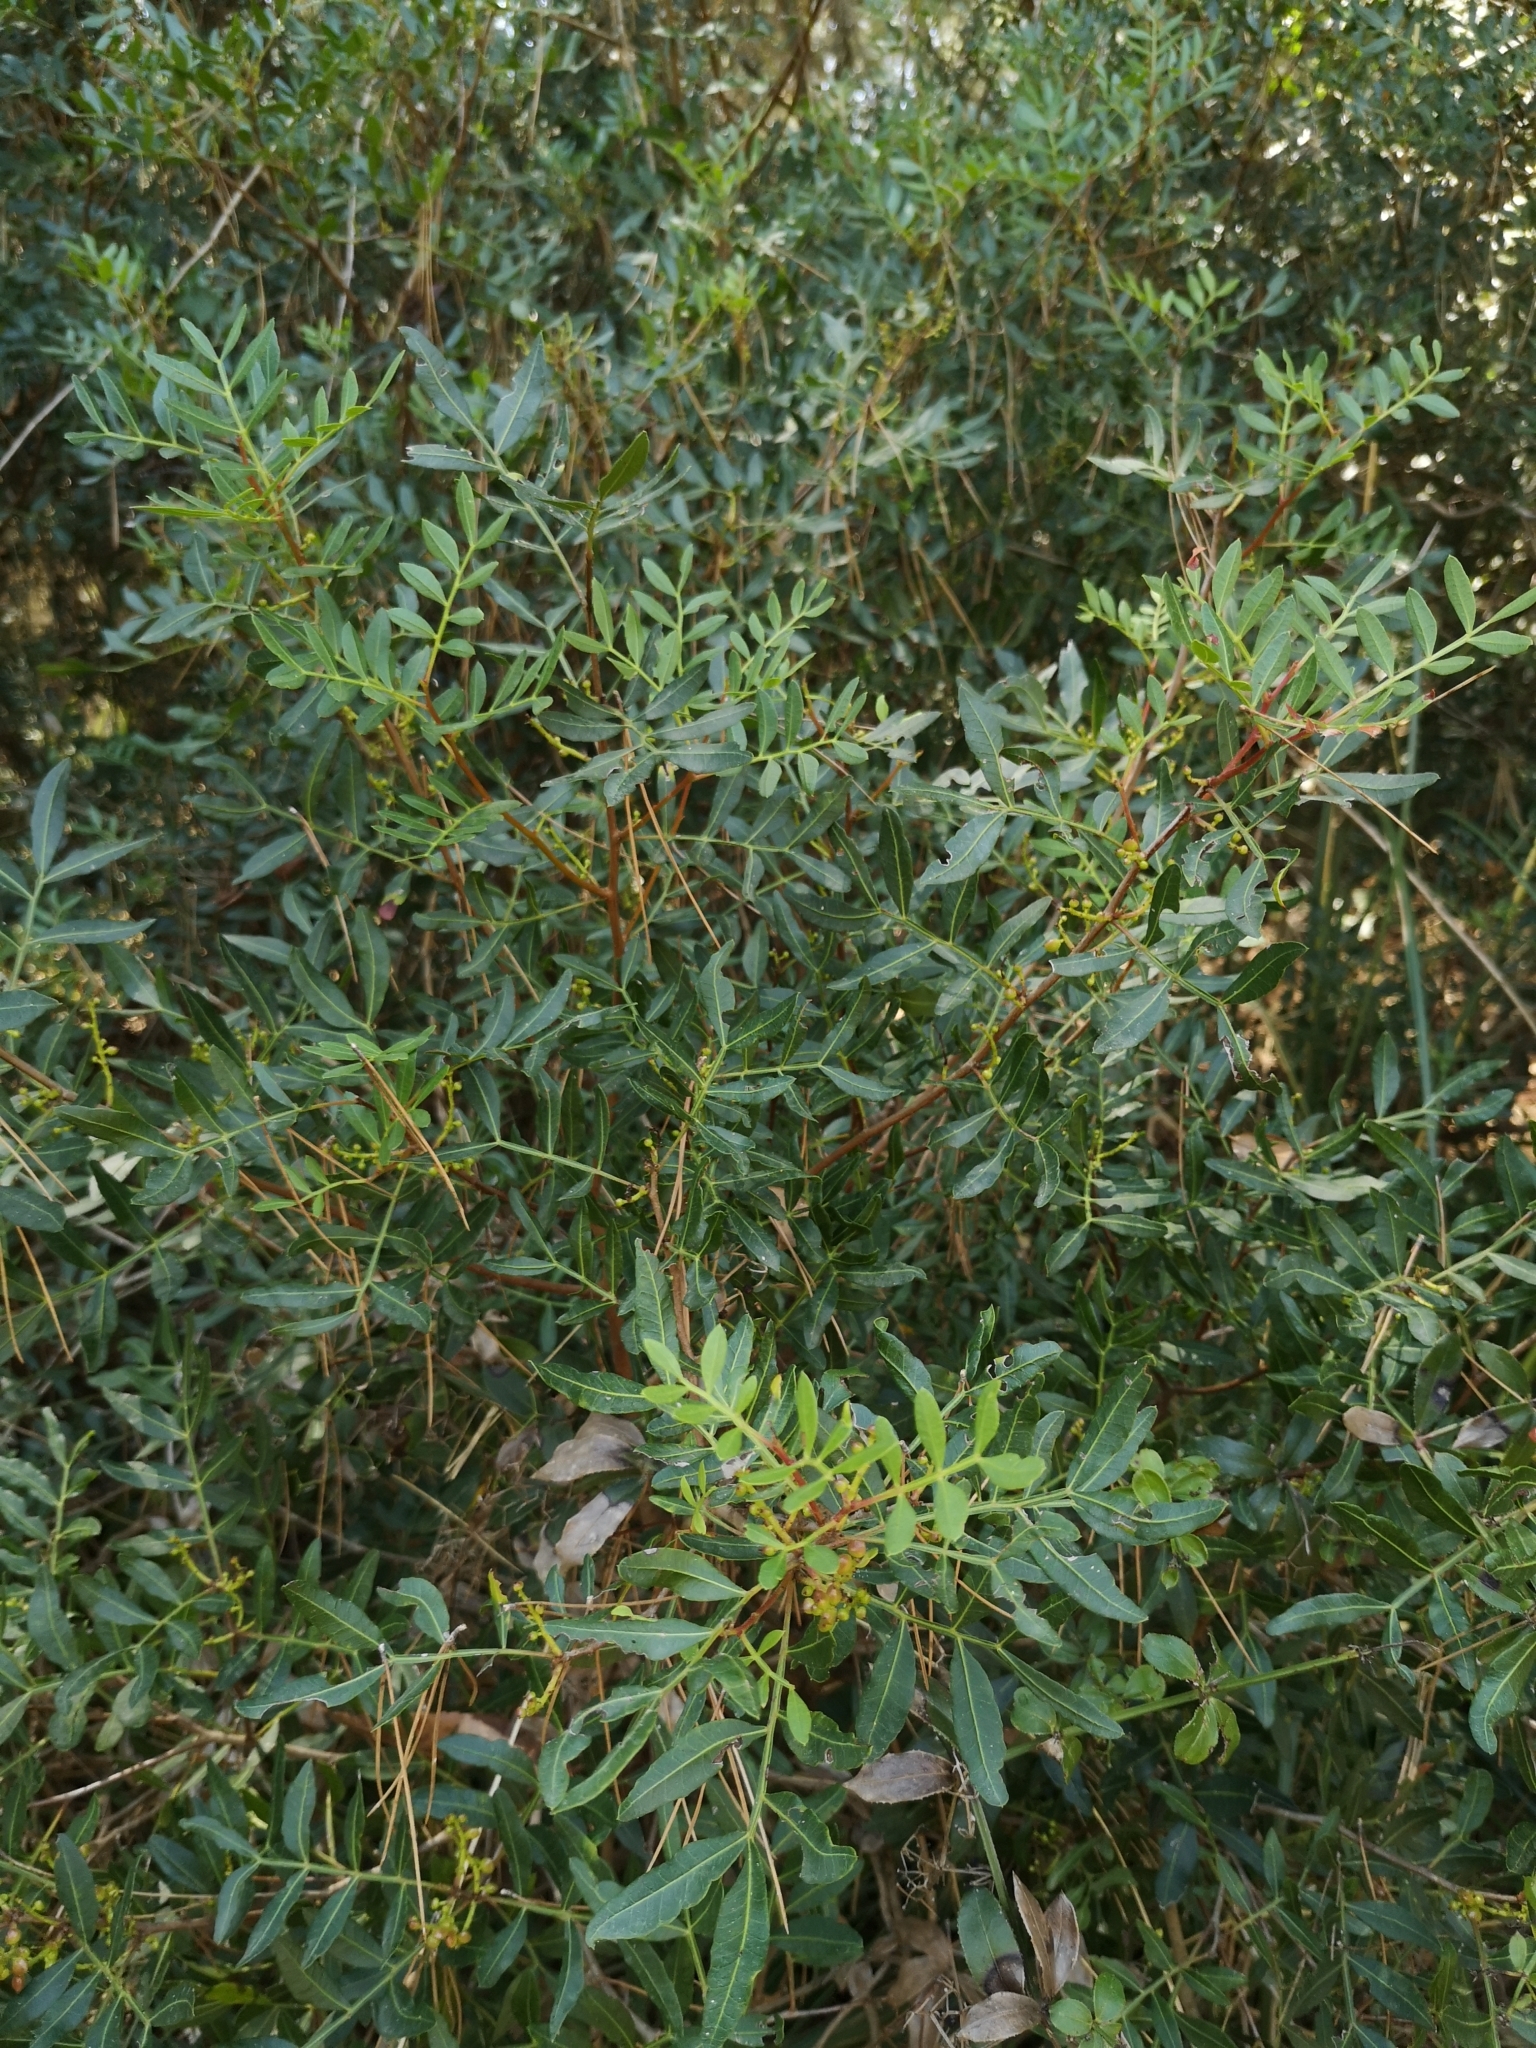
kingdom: Plantae
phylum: Tracheophyta
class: Magnoliopsida
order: Sapindales
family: Anacardiaceae
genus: Pistacia
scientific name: Pistacia lentiscus
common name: Lentisk
